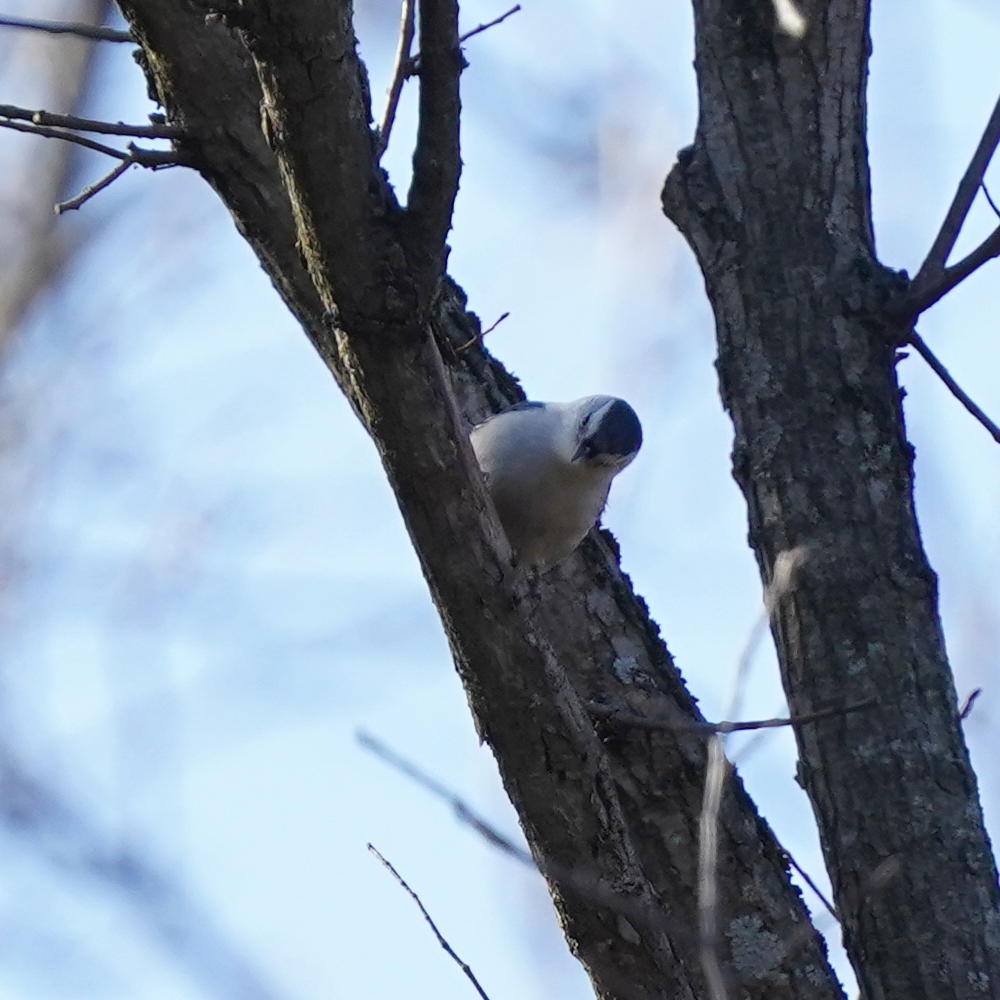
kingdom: Animalia
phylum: Chordata
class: Aves
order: Passeriformes
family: Sittidae
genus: Sitta
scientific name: Sitta carolinensis
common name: White-breasted nuthatch
